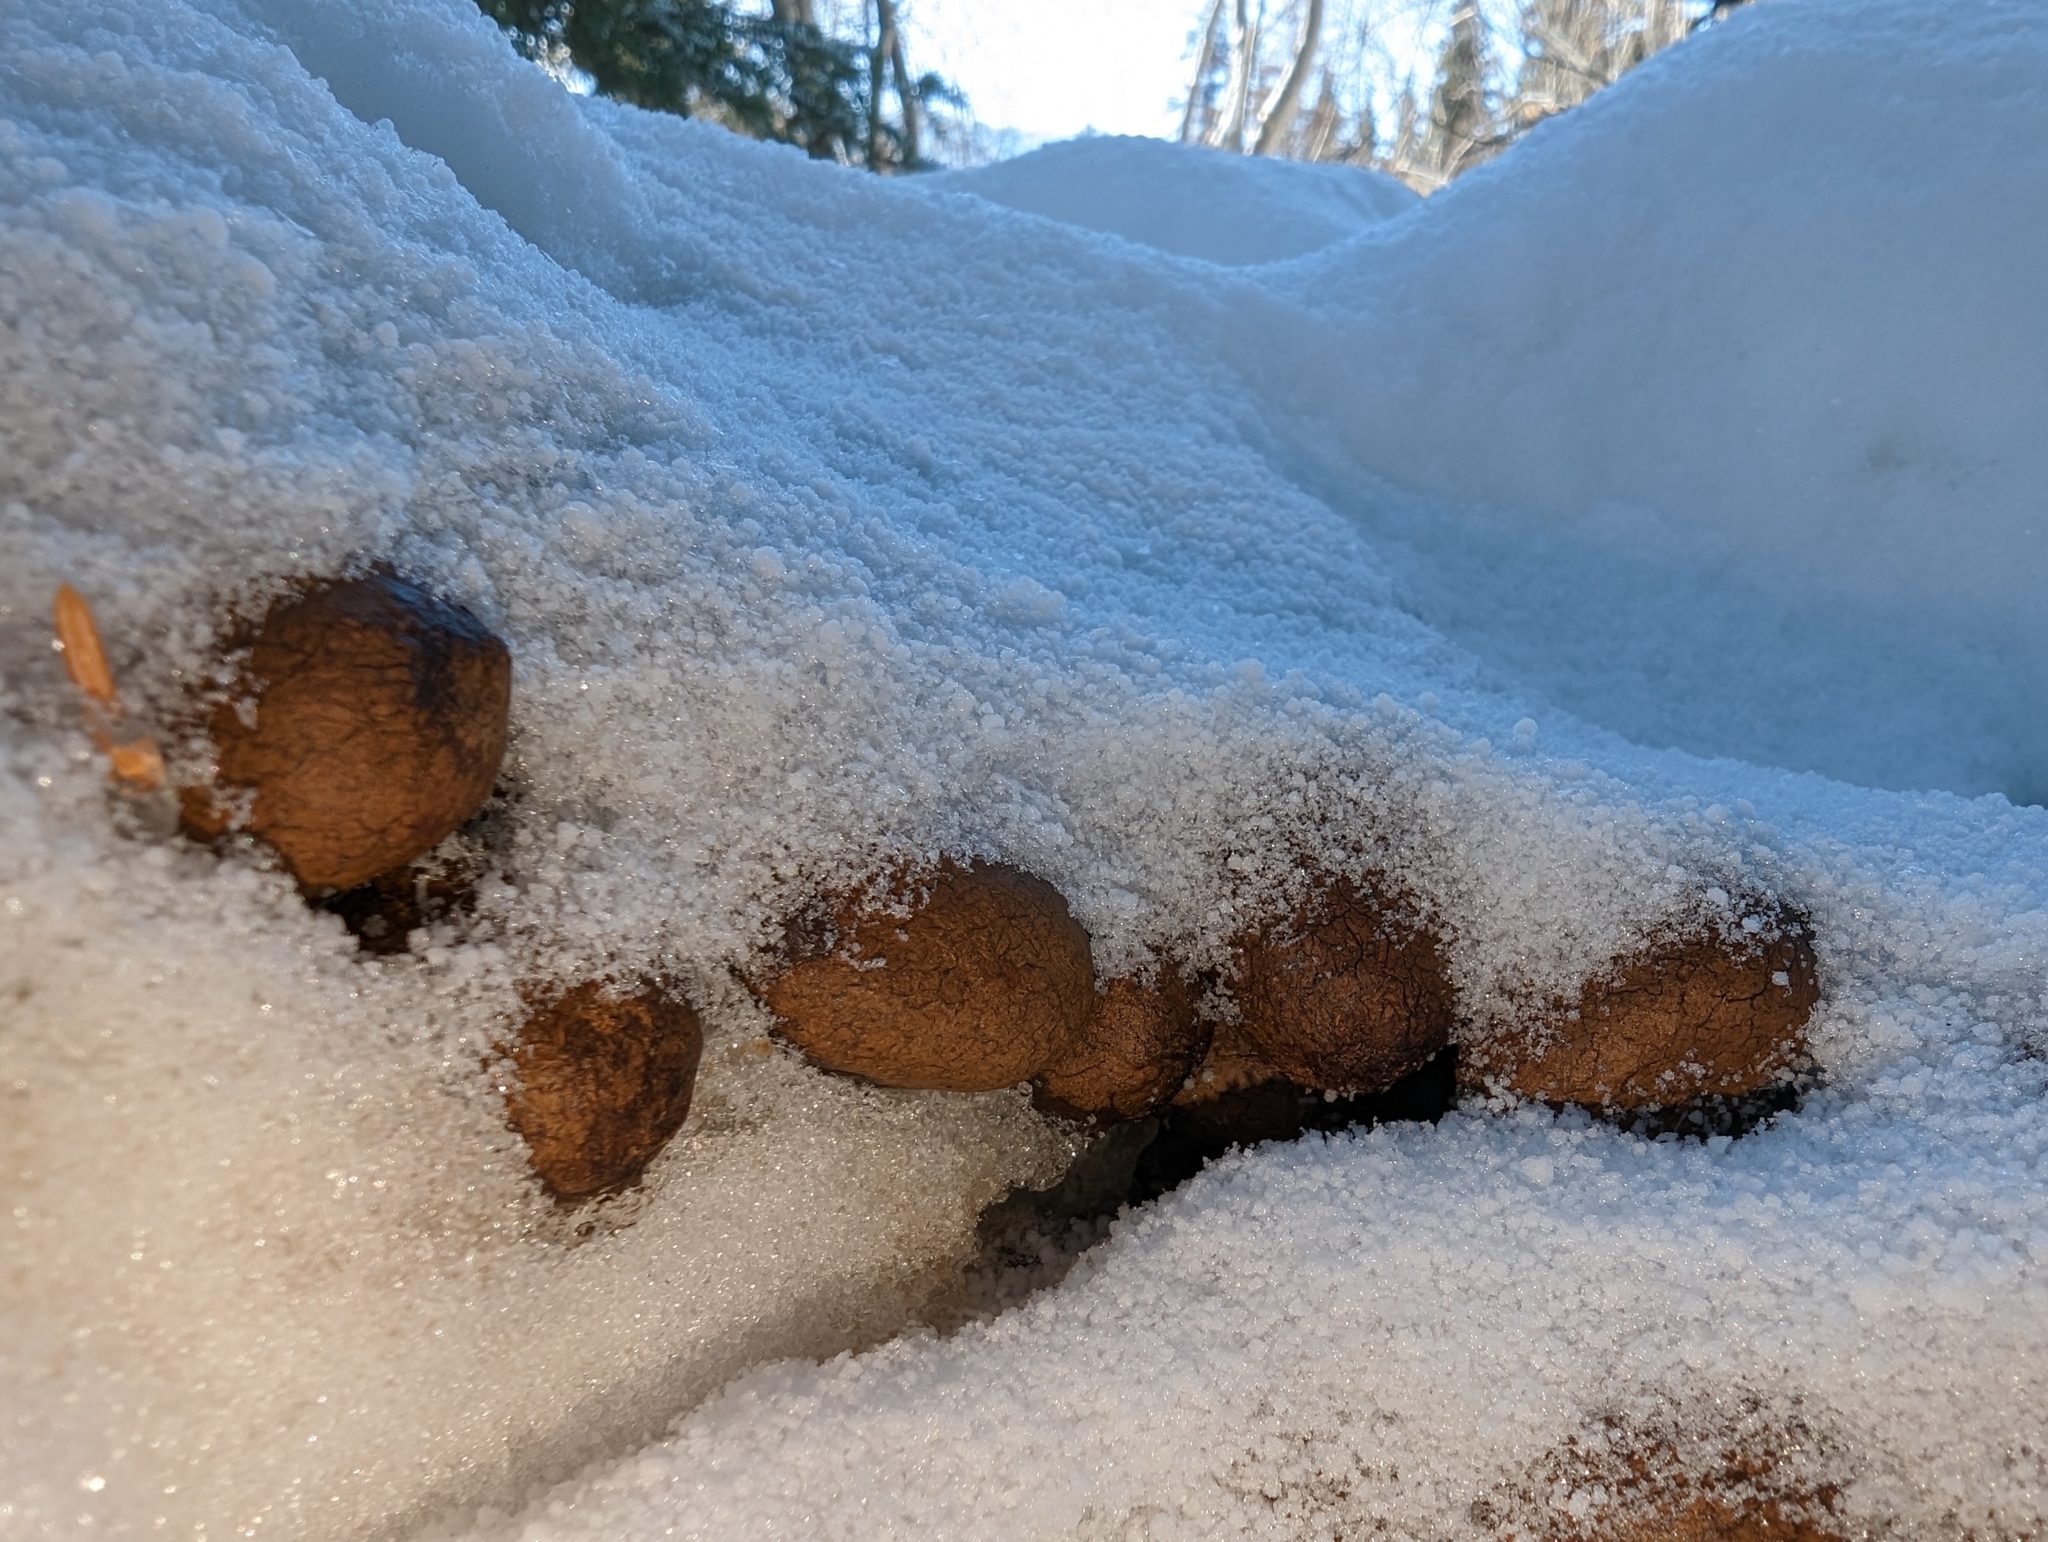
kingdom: Animalia
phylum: Chordata
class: Mammalia
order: Artiodactyla
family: Cervidae
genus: Alces
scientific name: Alces alces
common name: Moose
